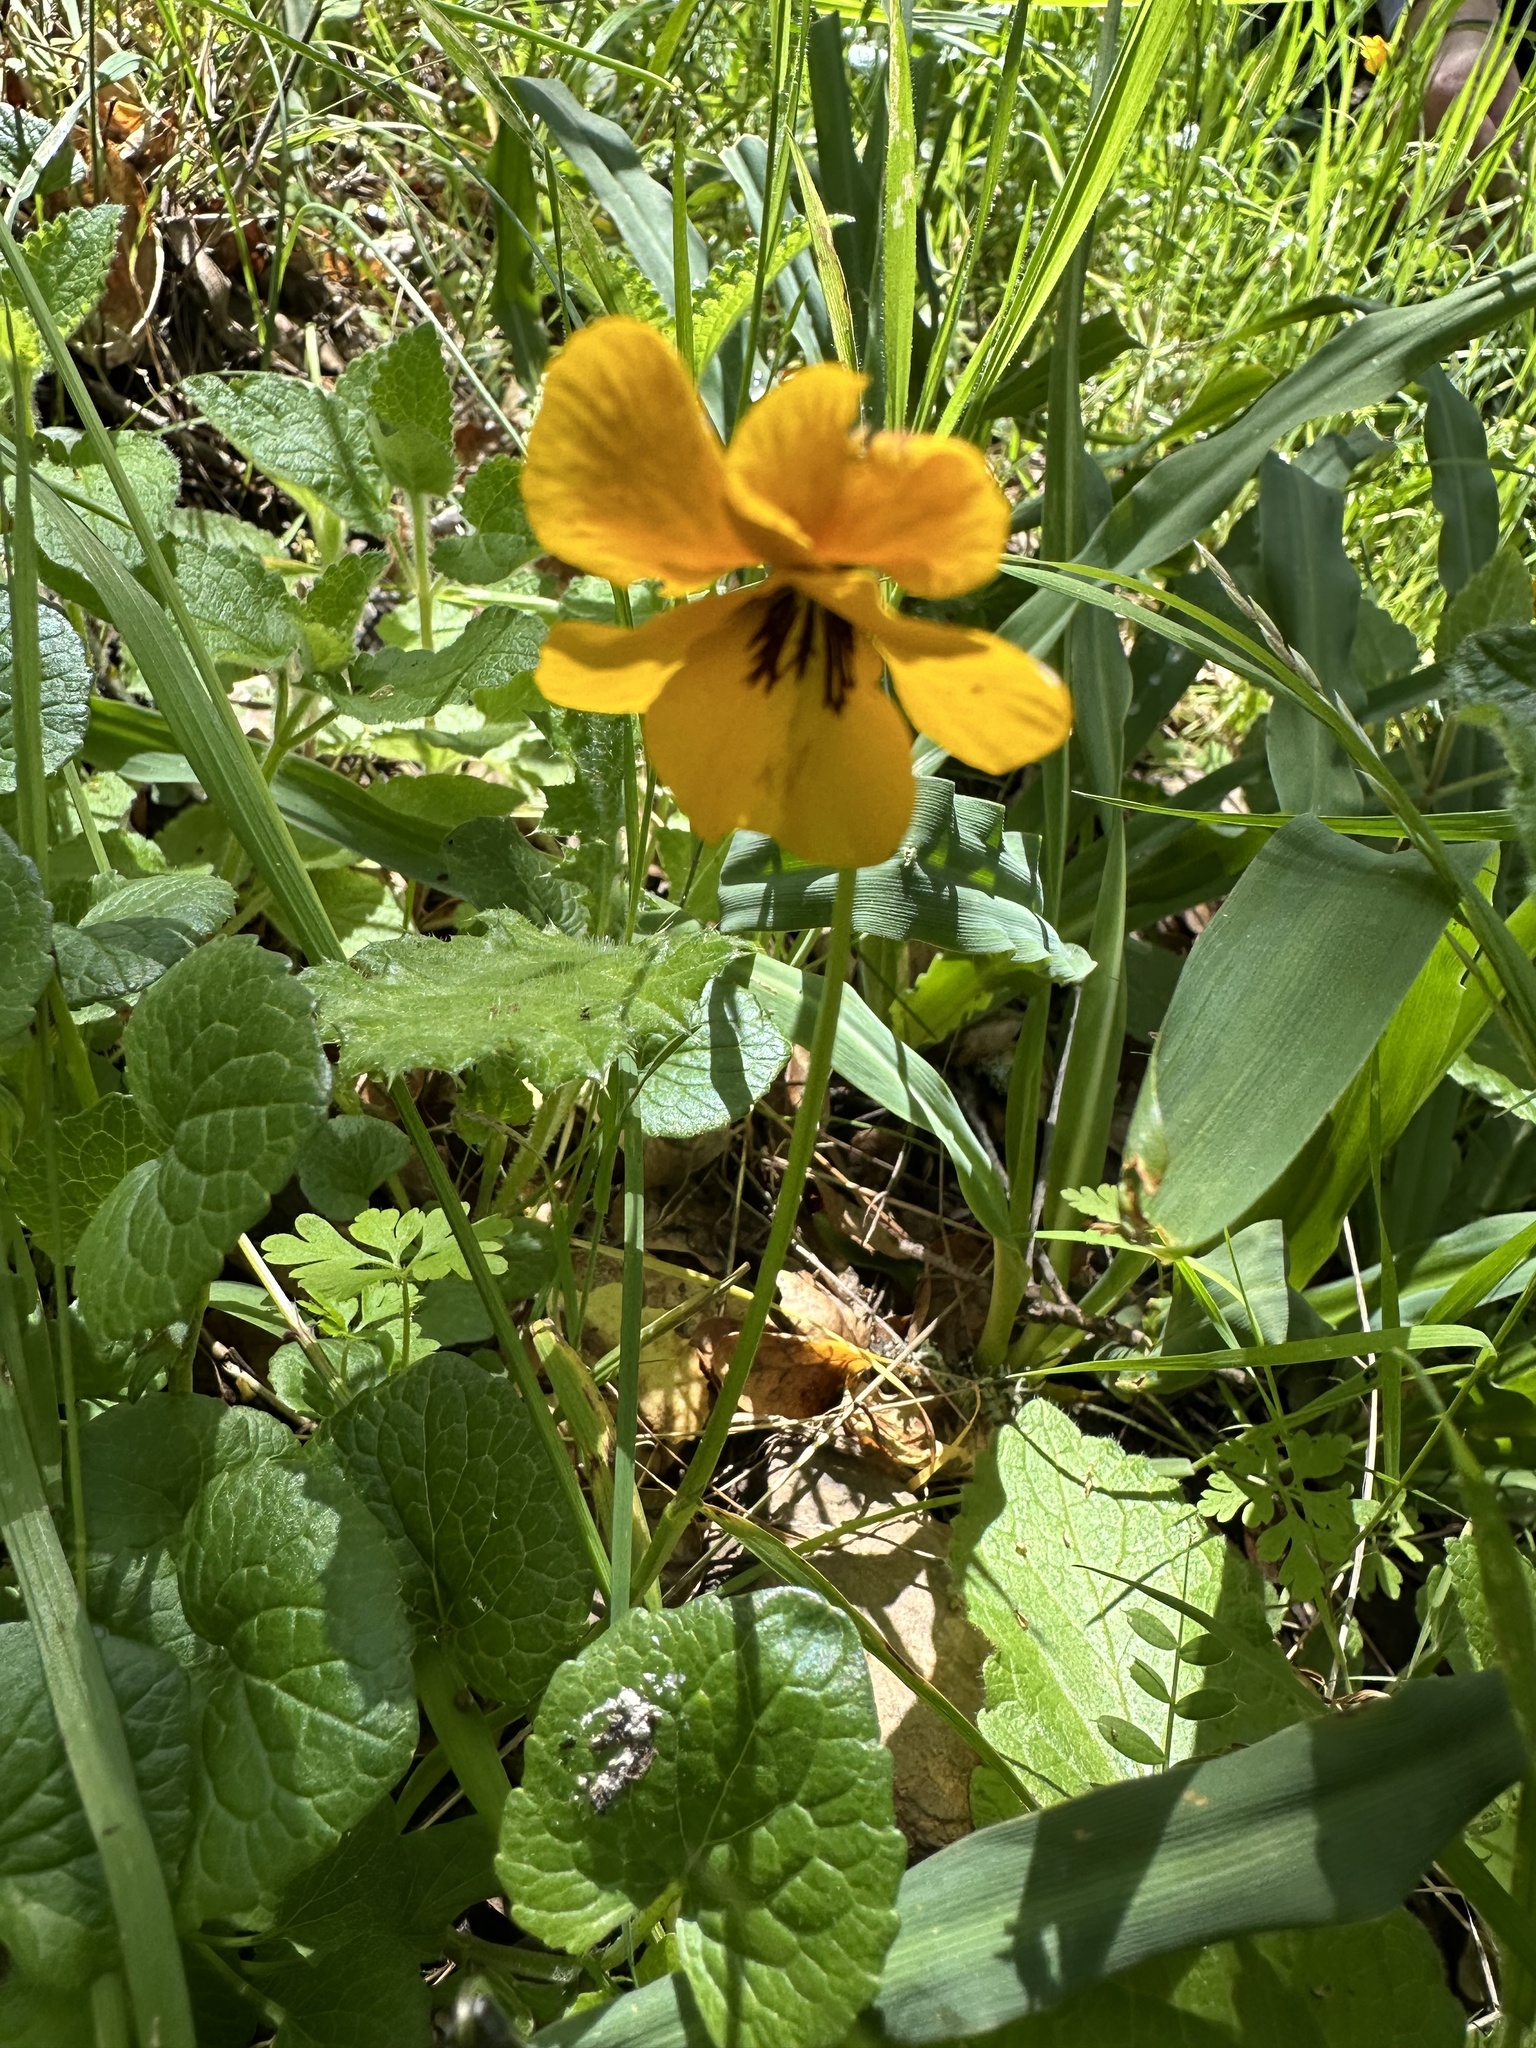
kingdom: Plantae
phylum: Tracheophyta
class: Magnoliopsida
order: Malpighiales
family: Violaceae
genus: Viola
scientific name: Viola pedunculata
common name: California golden violet
